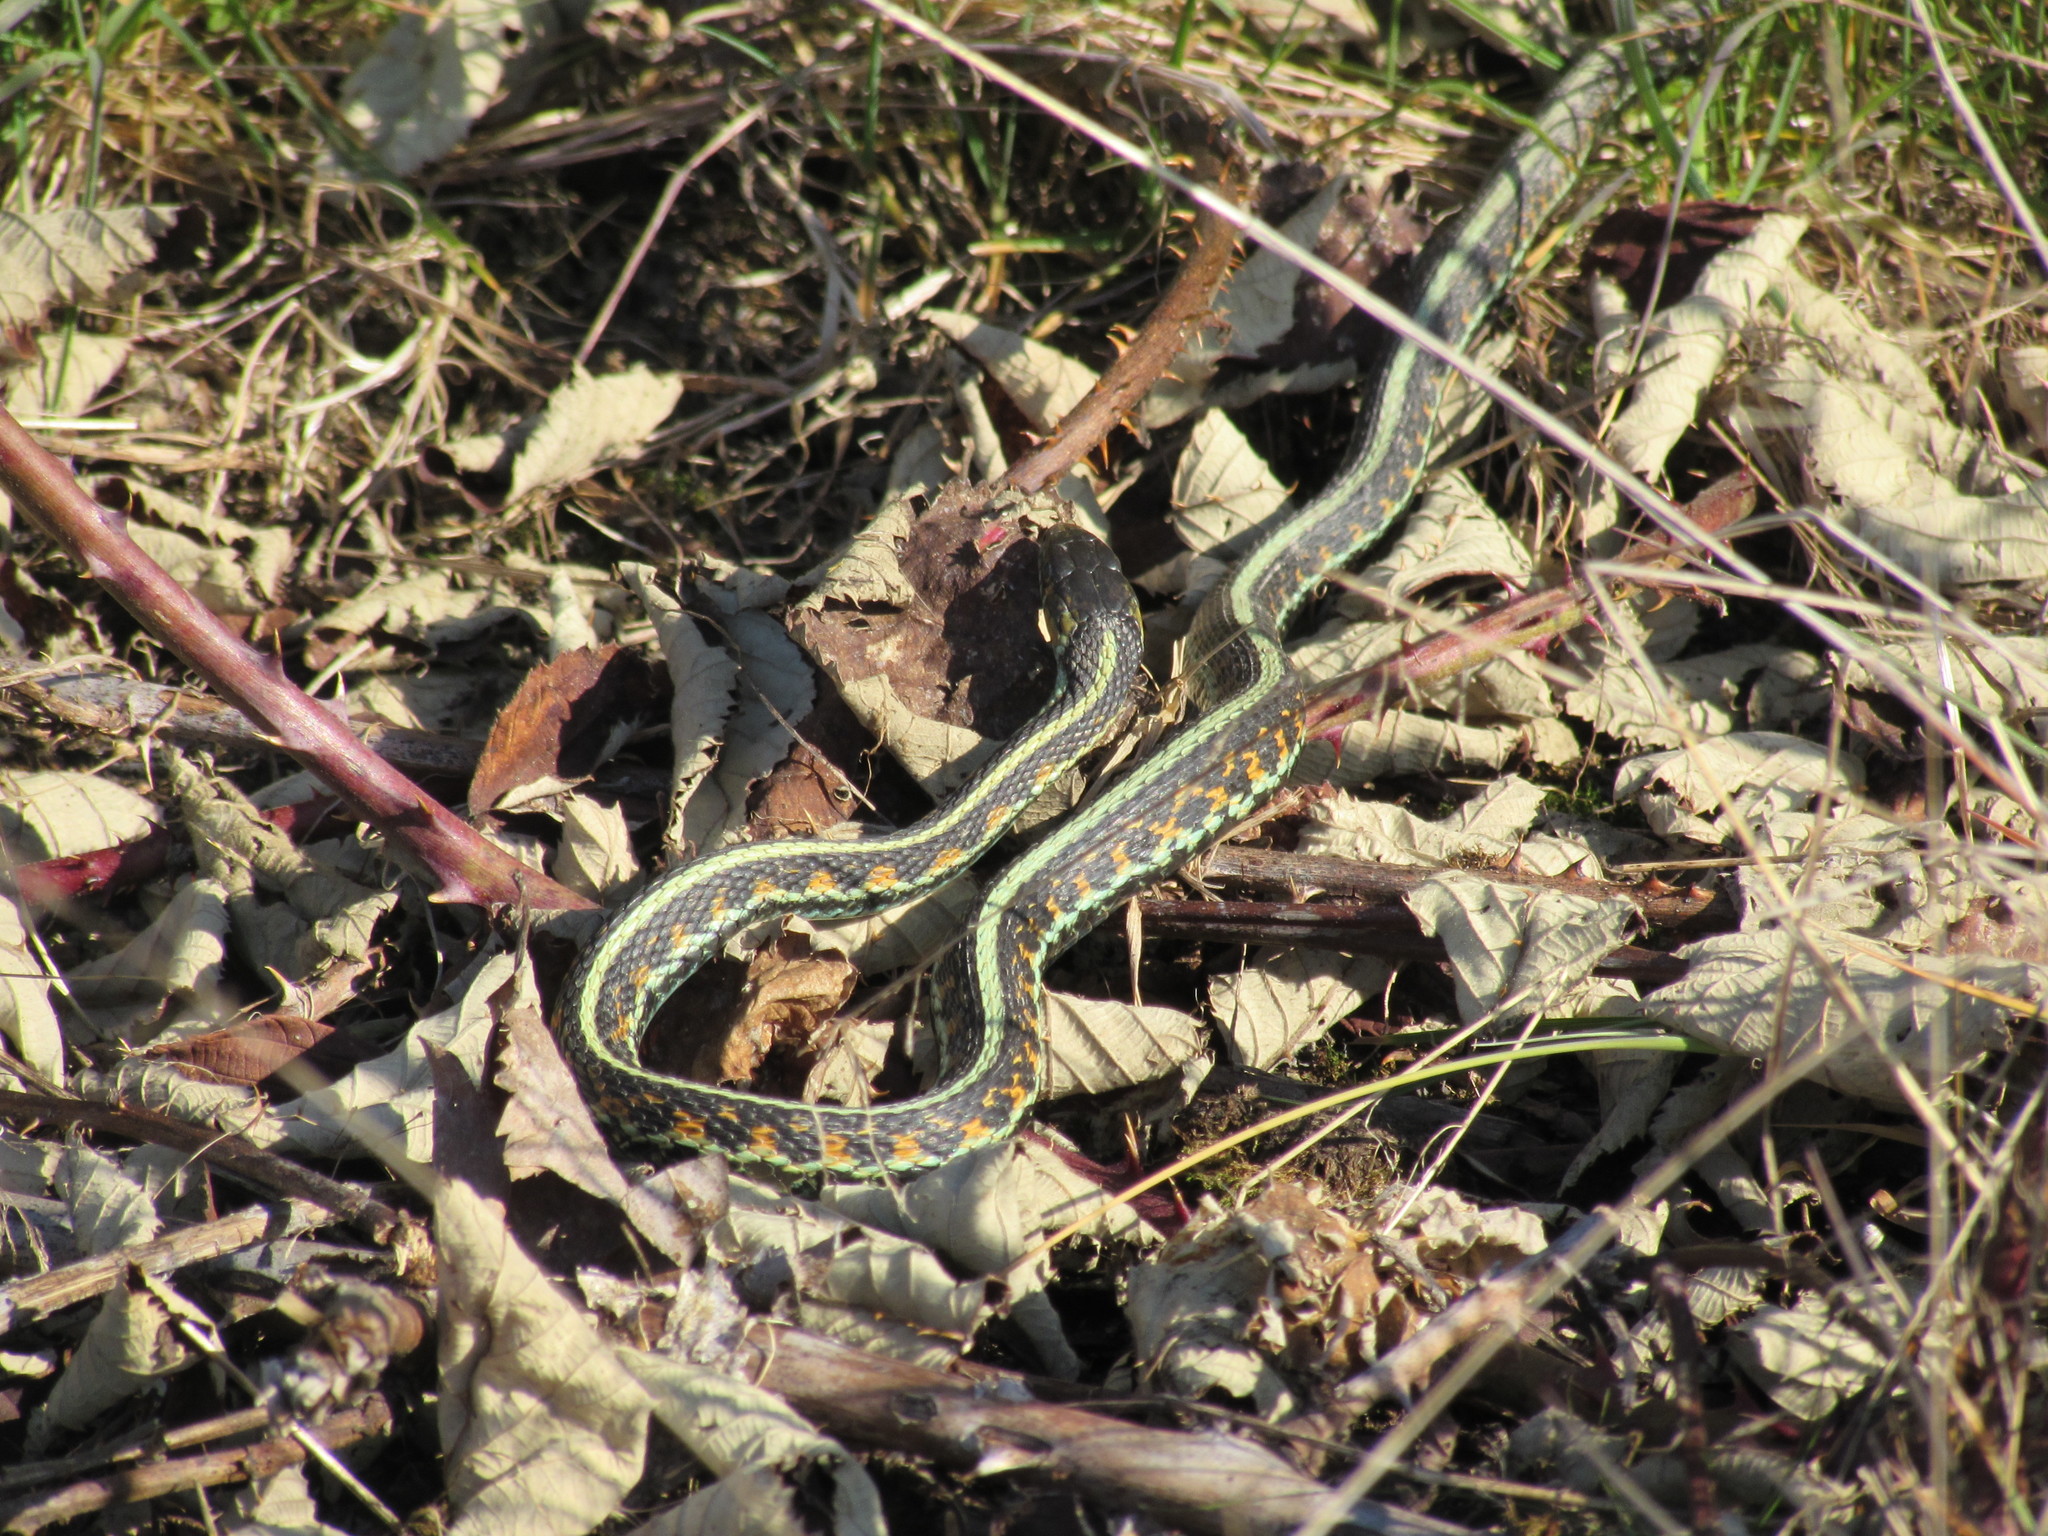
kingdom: Animalia
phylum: Chordata
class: Squamata
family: Colubridae
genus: Thamnophis
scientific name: Thamnophis sirtalis
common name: Common garter snake
